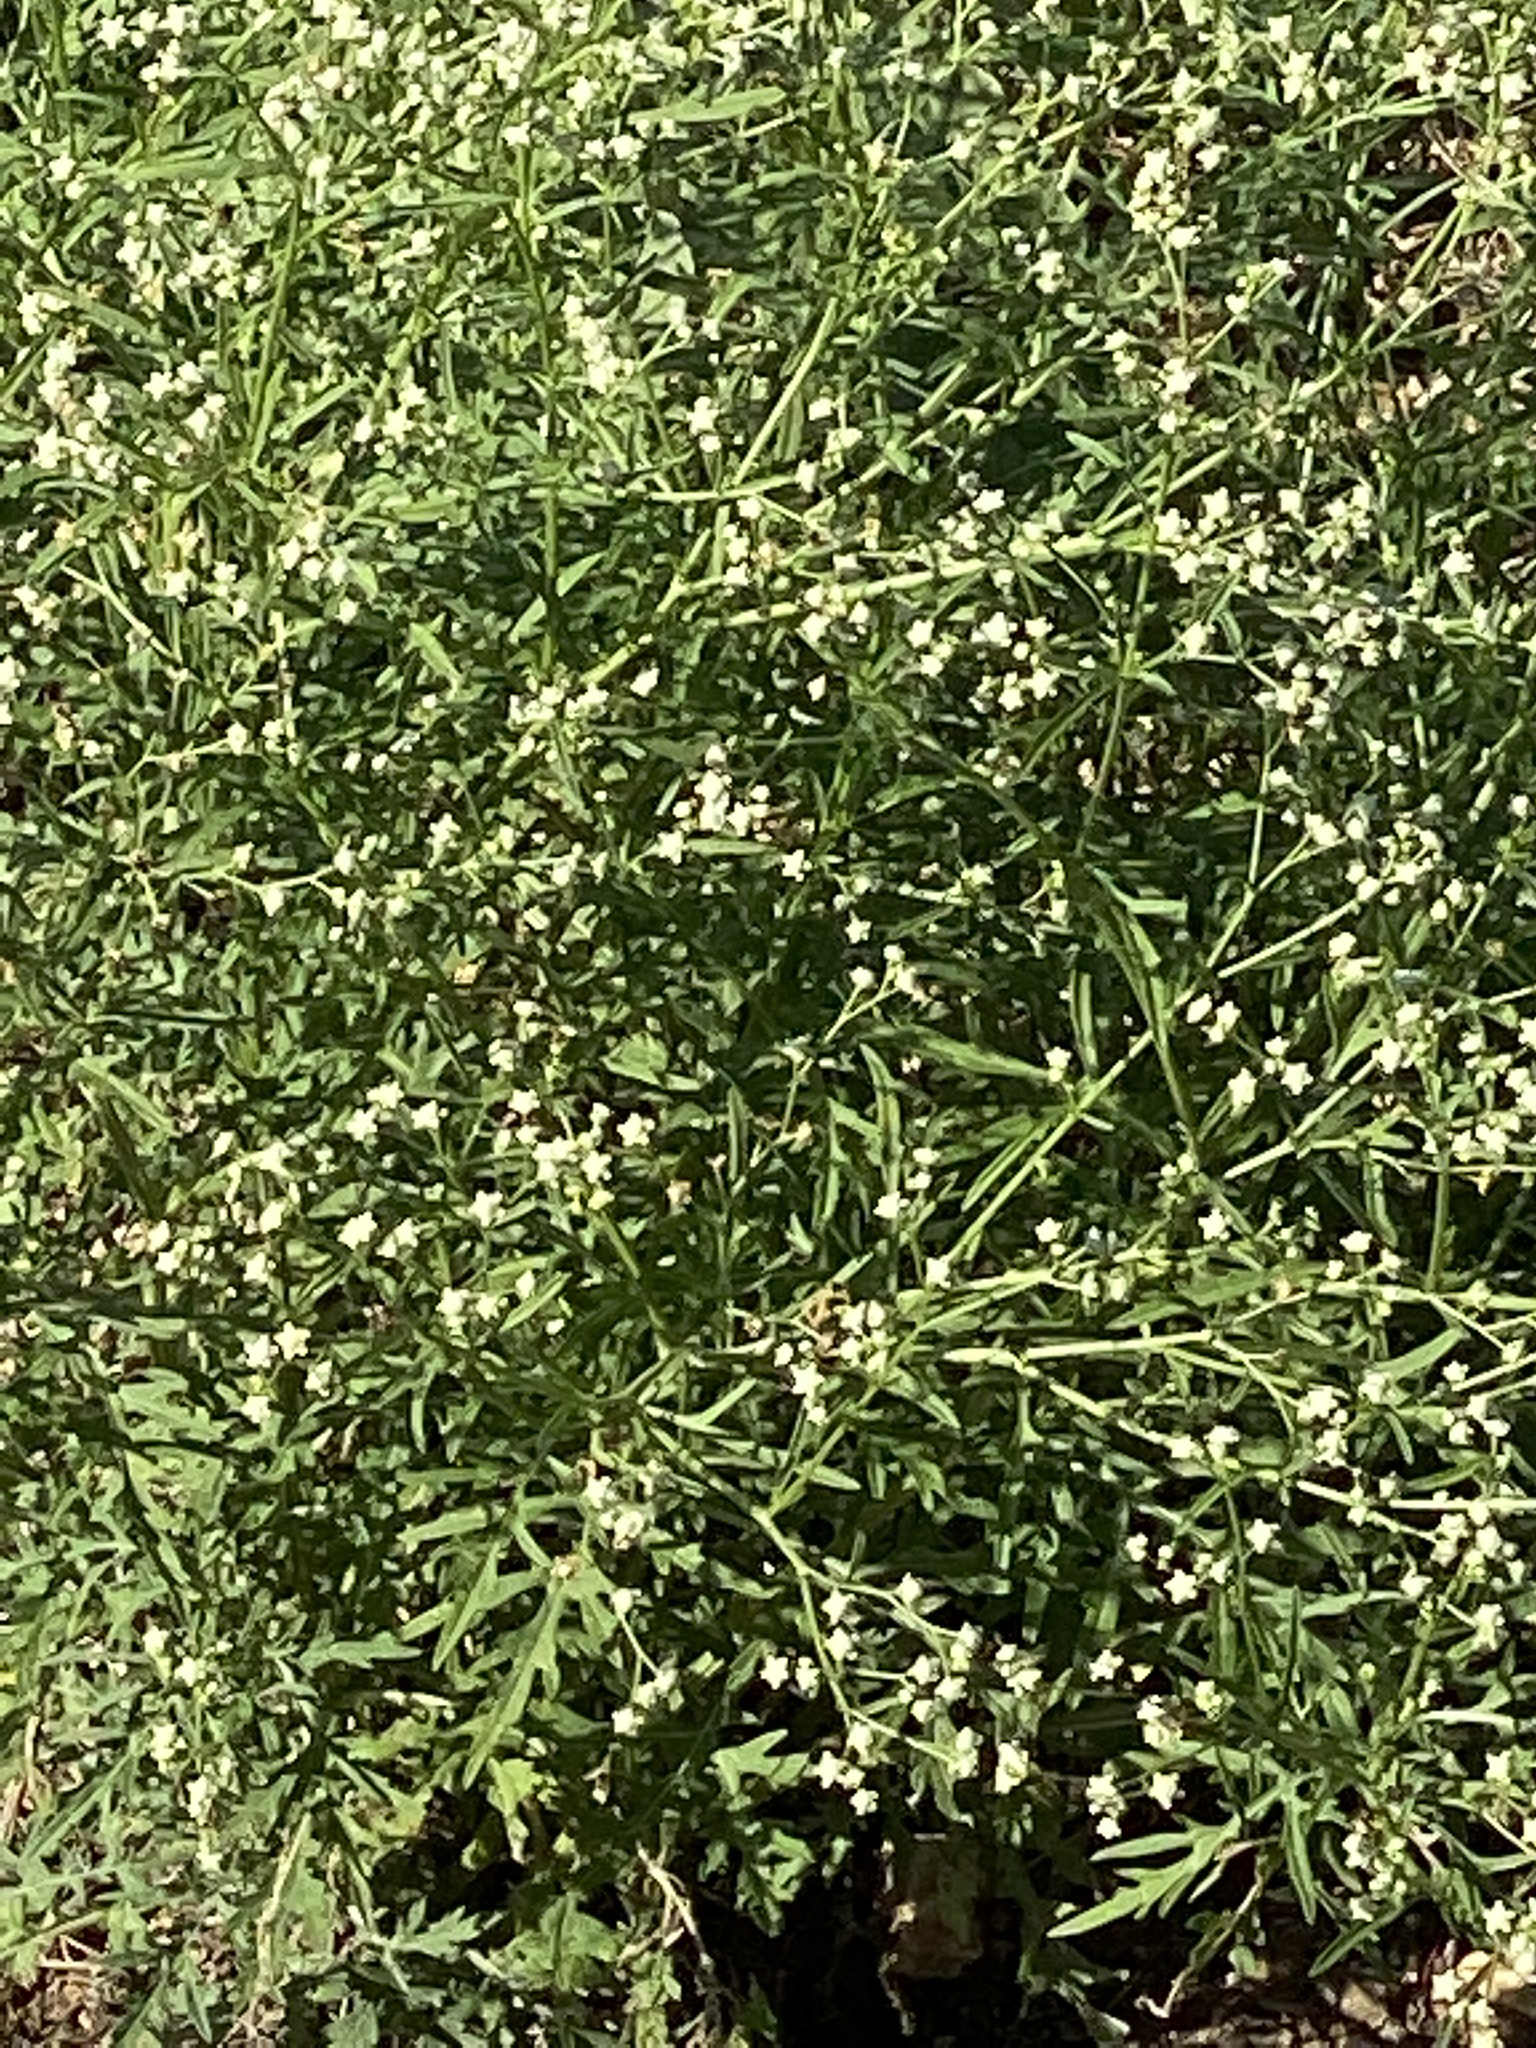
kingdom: Plantae
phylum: Tracheophyta
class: Magnoliopsida
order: Asterales
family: Asteraceae
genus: Parthenium
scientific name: Parthenium hysterophorus
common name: Santa maria feverfew
